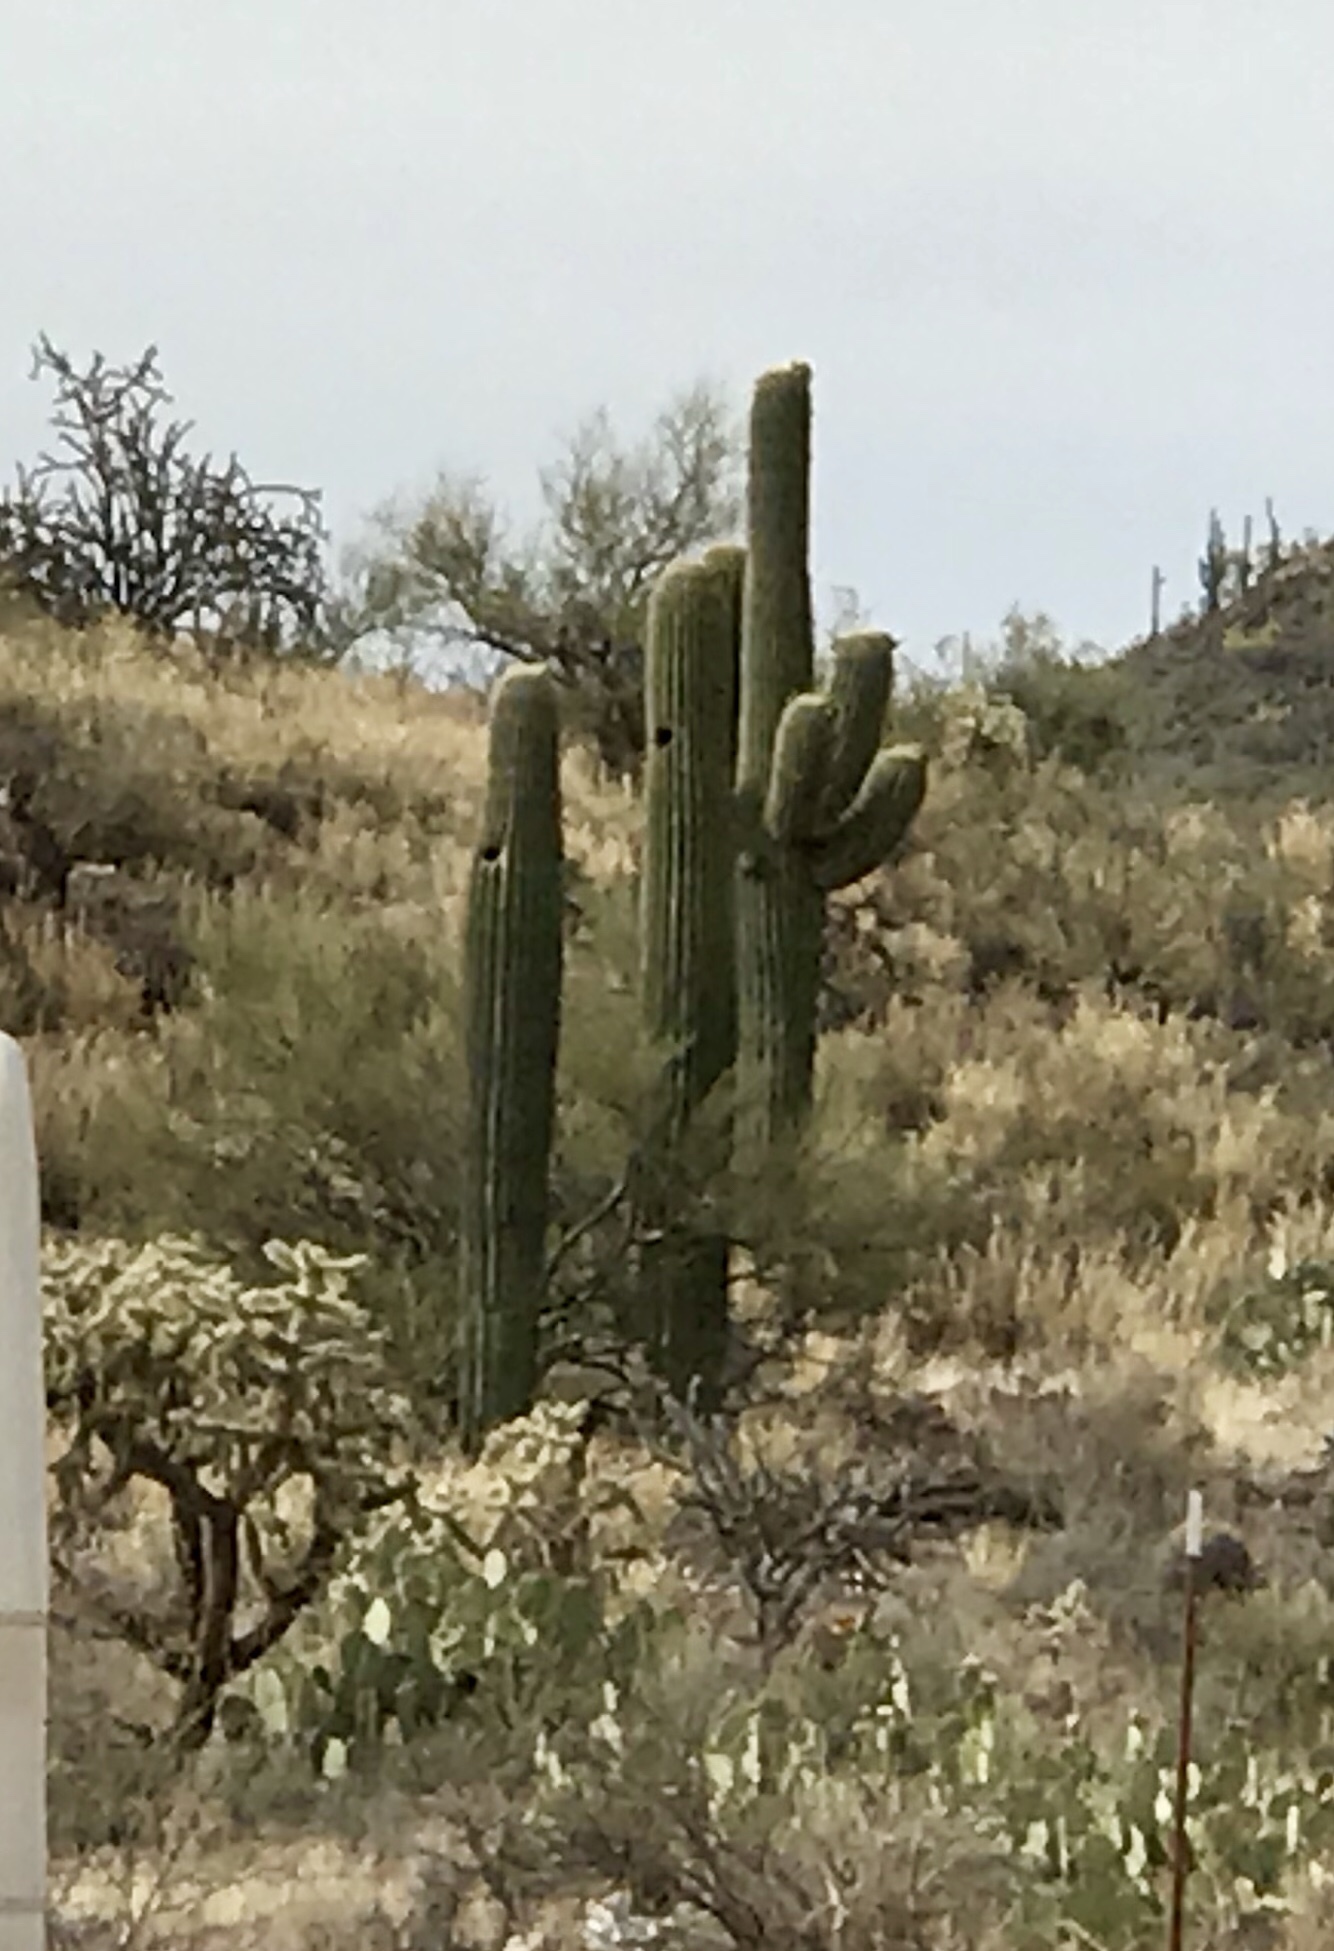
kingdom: Plantae
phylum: Tracheophyta
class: Magnoliopsida
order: Caryophyllales
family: Cactaceae
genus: Carnegiea
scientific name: Carnegiea gigantea
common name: Saguaro
